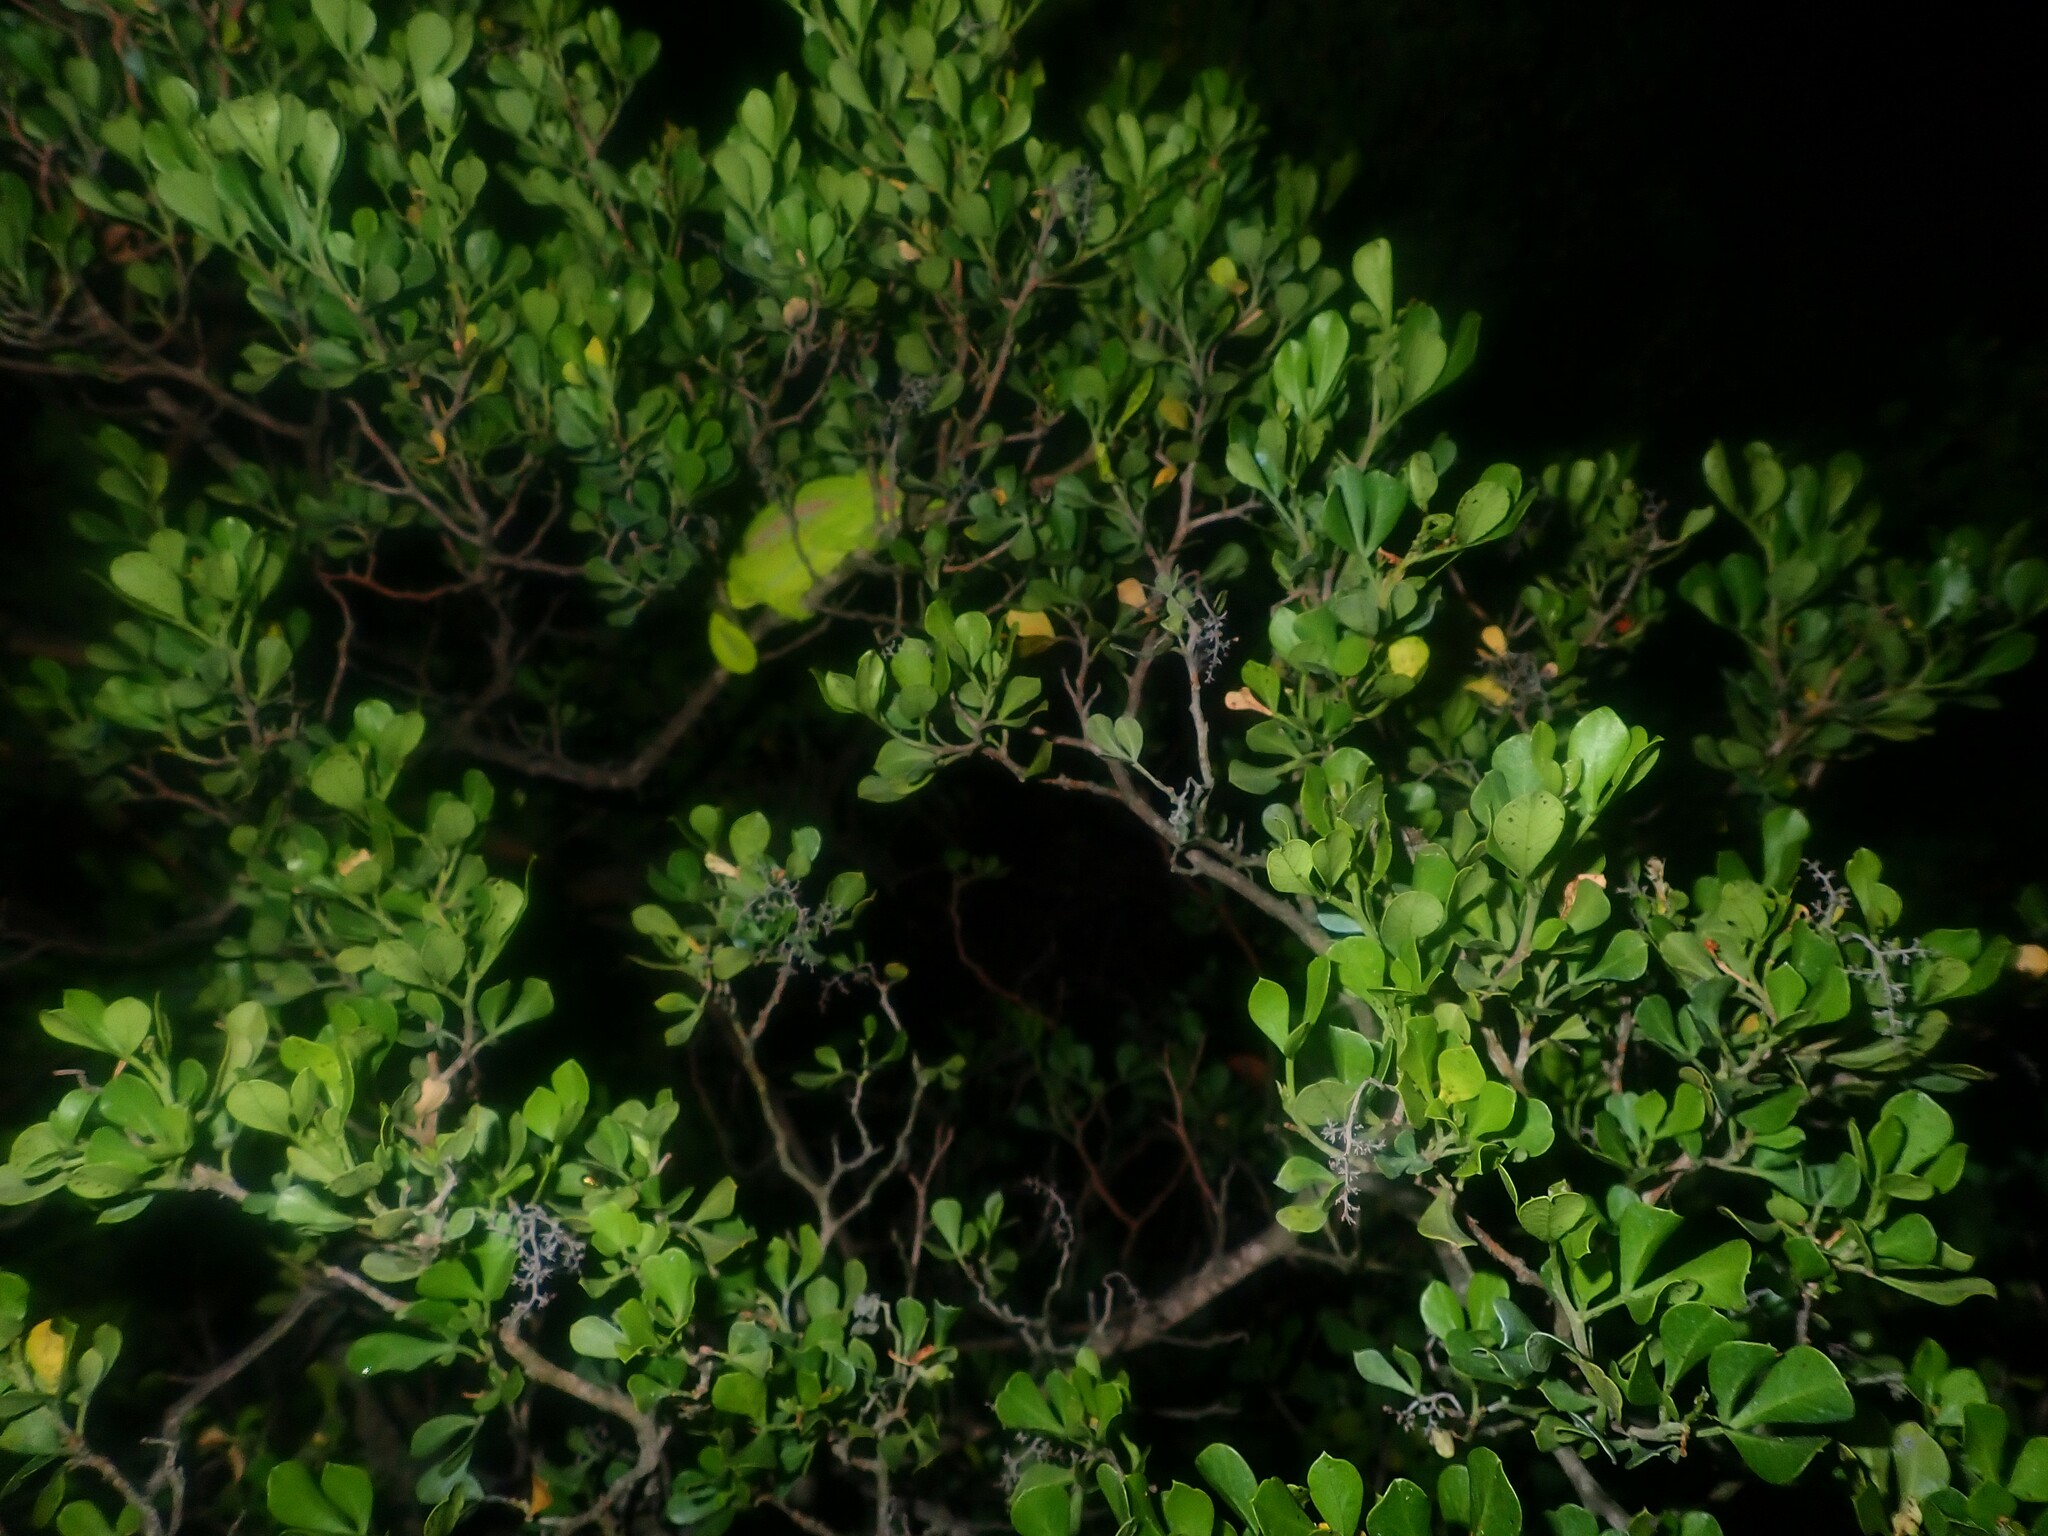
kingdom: Animalia
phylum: Chordata
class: Squamata
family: Chamaeleonidae
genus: Bradypodion
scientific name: Bradypodion pumilum
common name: Cape dwarf chameleon
